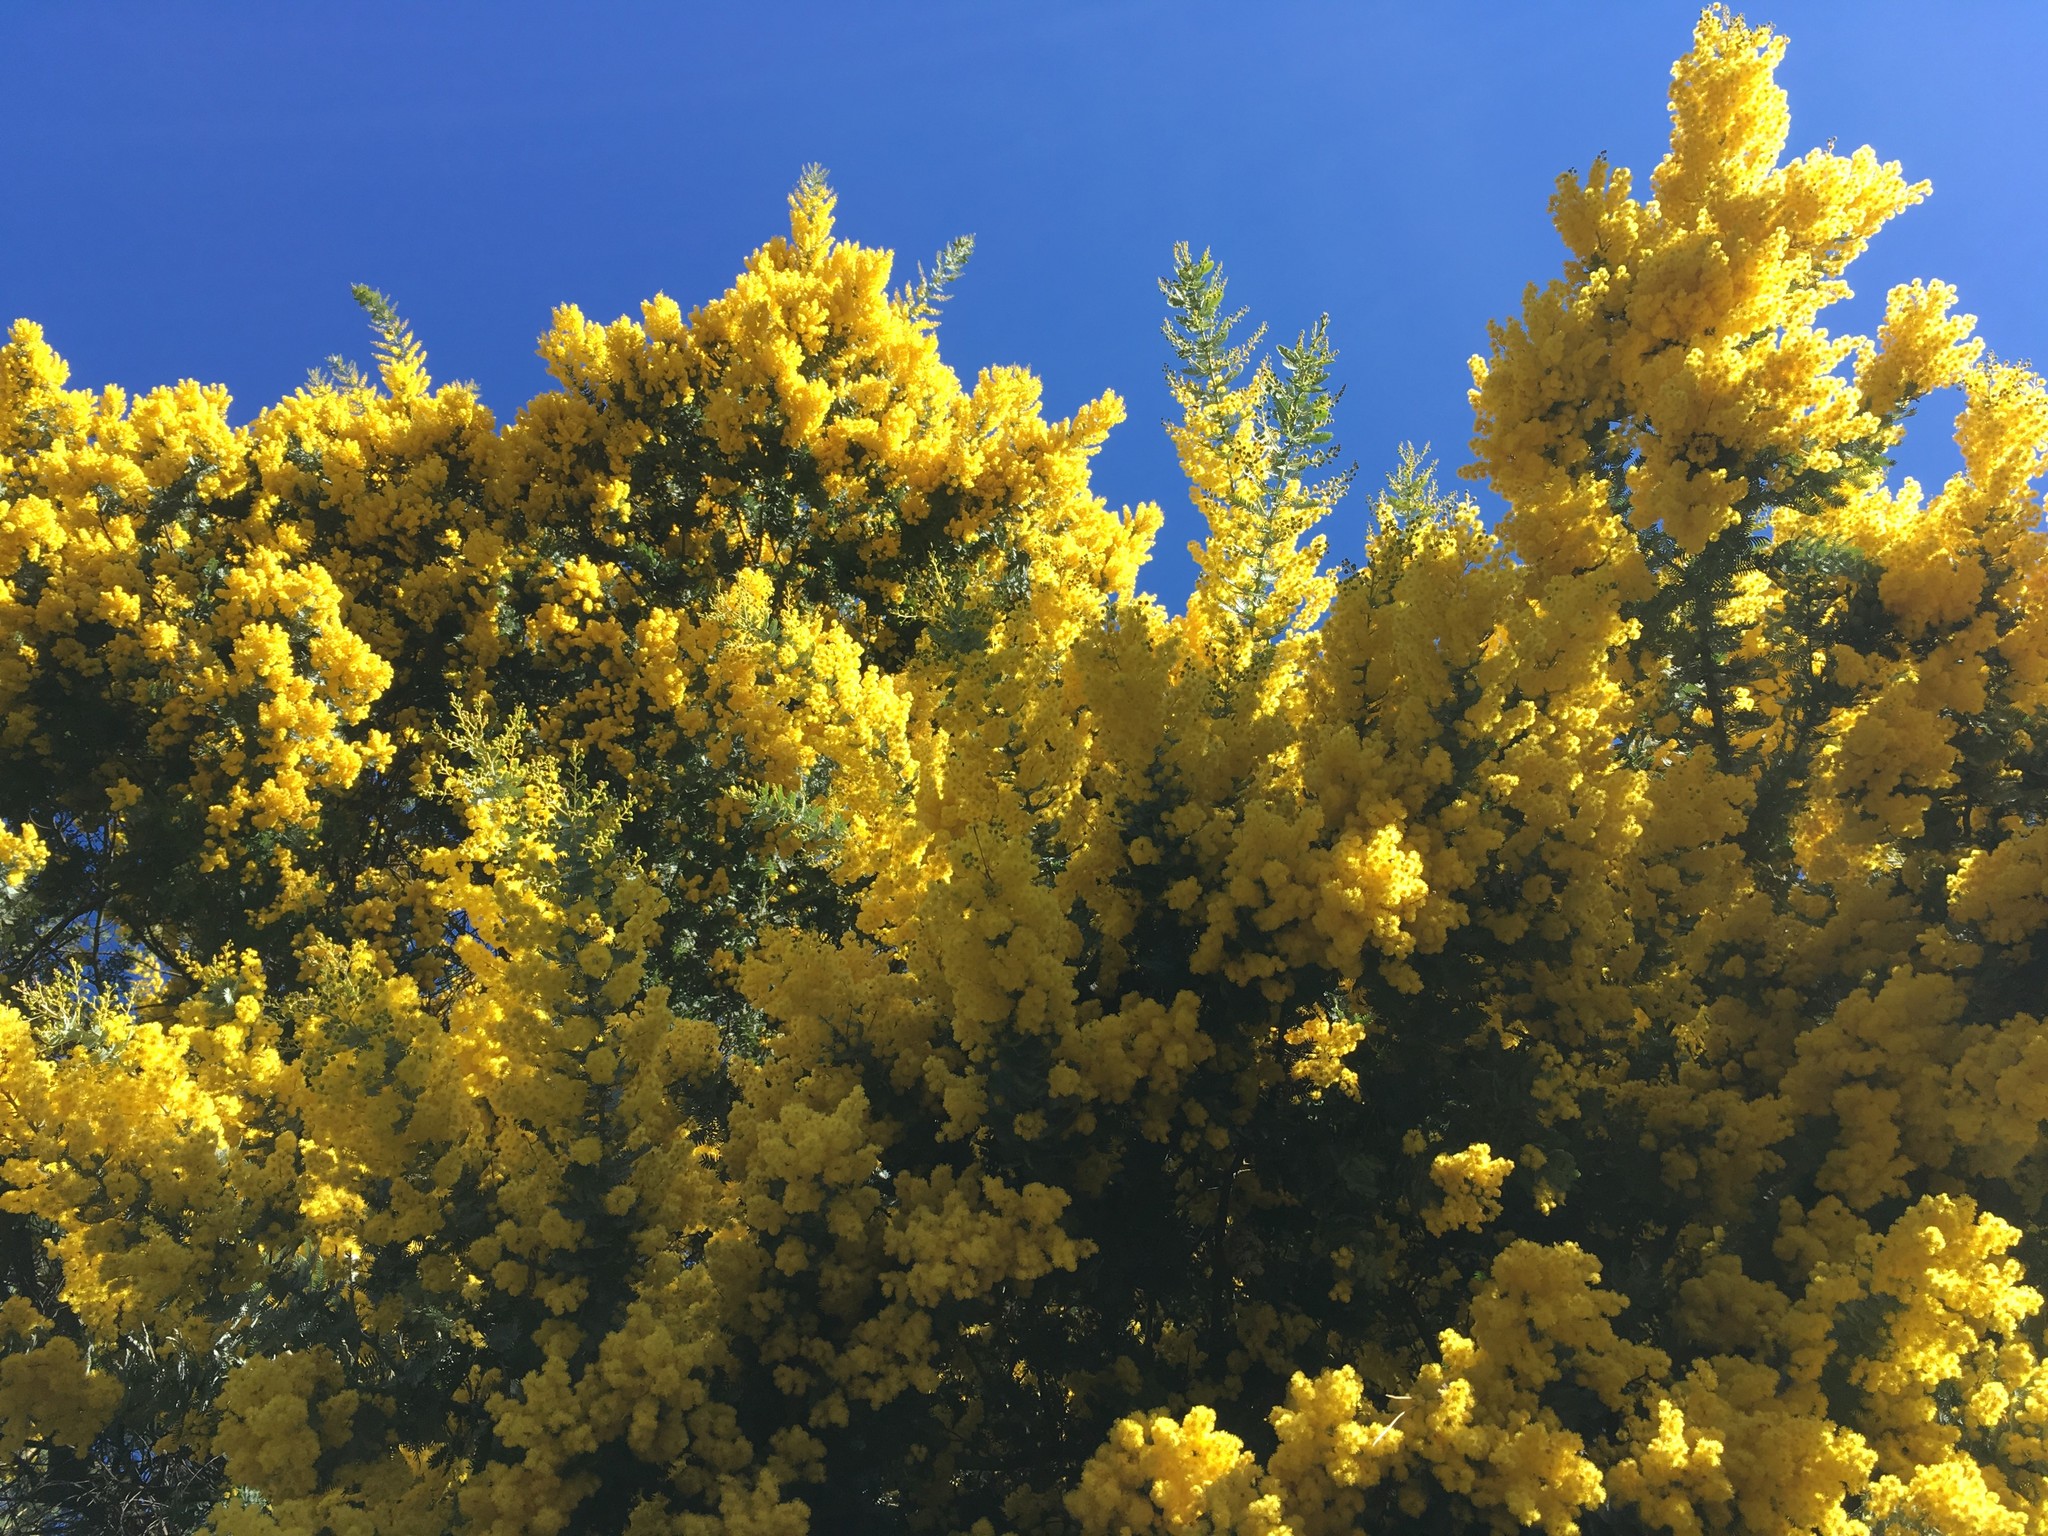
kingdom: Plantae
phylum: Tracheophyta
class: Magnoliopsida
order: Fabales
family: Fabaceae
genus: Acacia
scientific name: Acacia baileyana
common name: Cootamundra wattle
